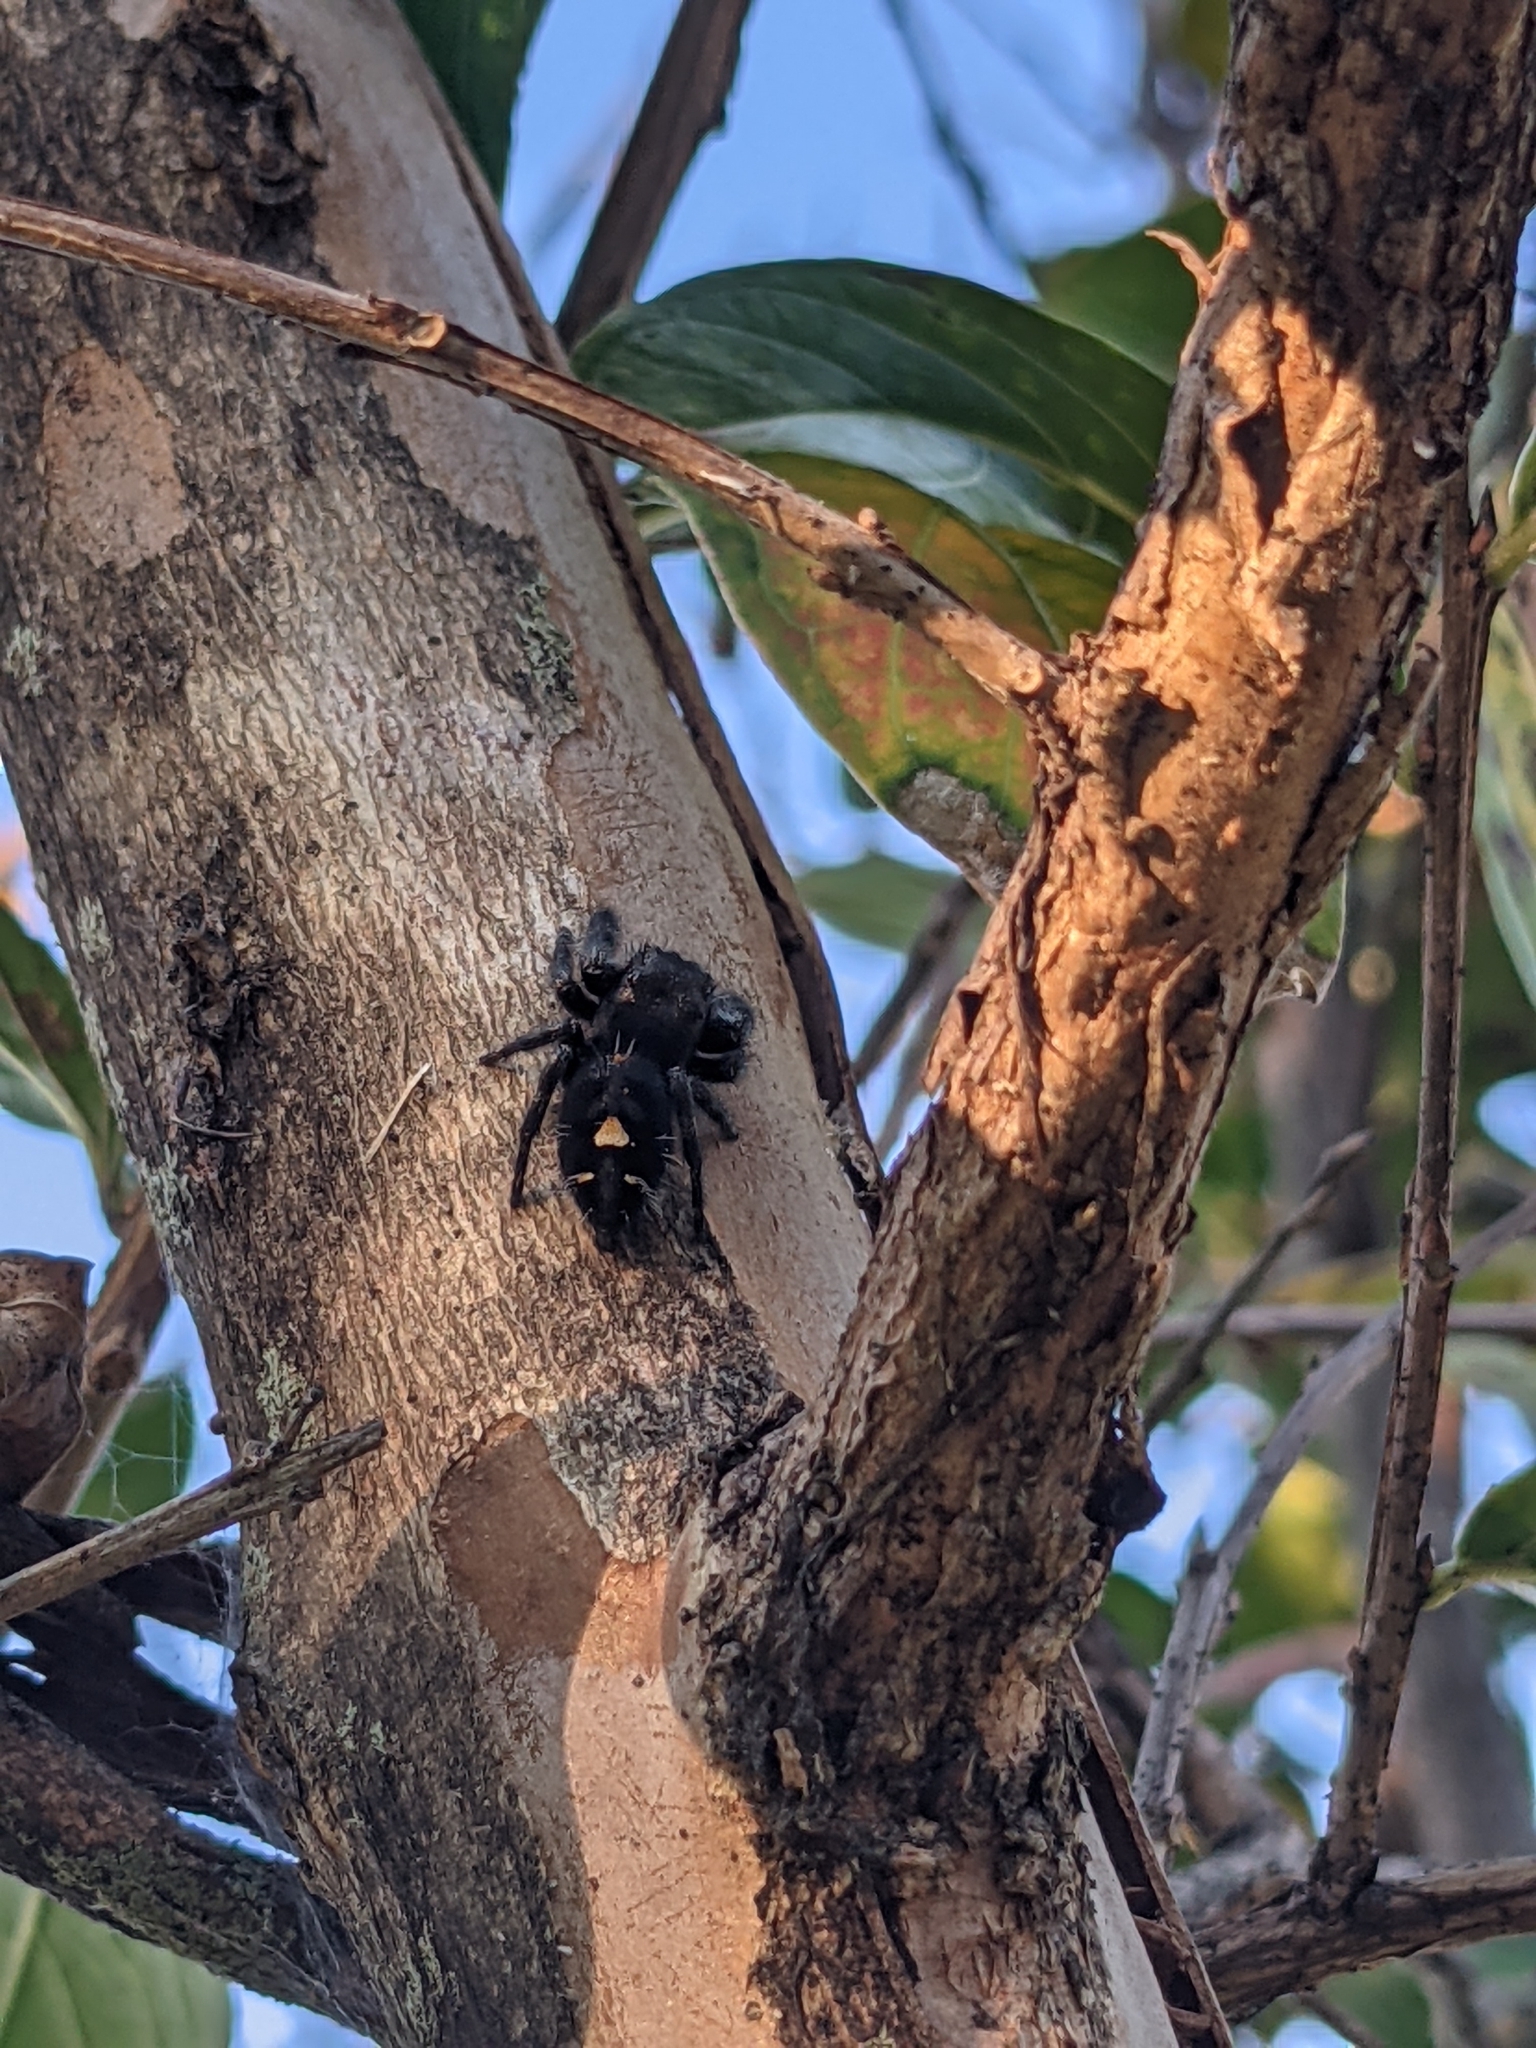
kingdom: Animalia
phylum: Arthropoda
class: Arachnida
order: Araneae
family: Salticidae
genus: Phidippus
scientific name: Phidippus audax
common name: Bold jumper
